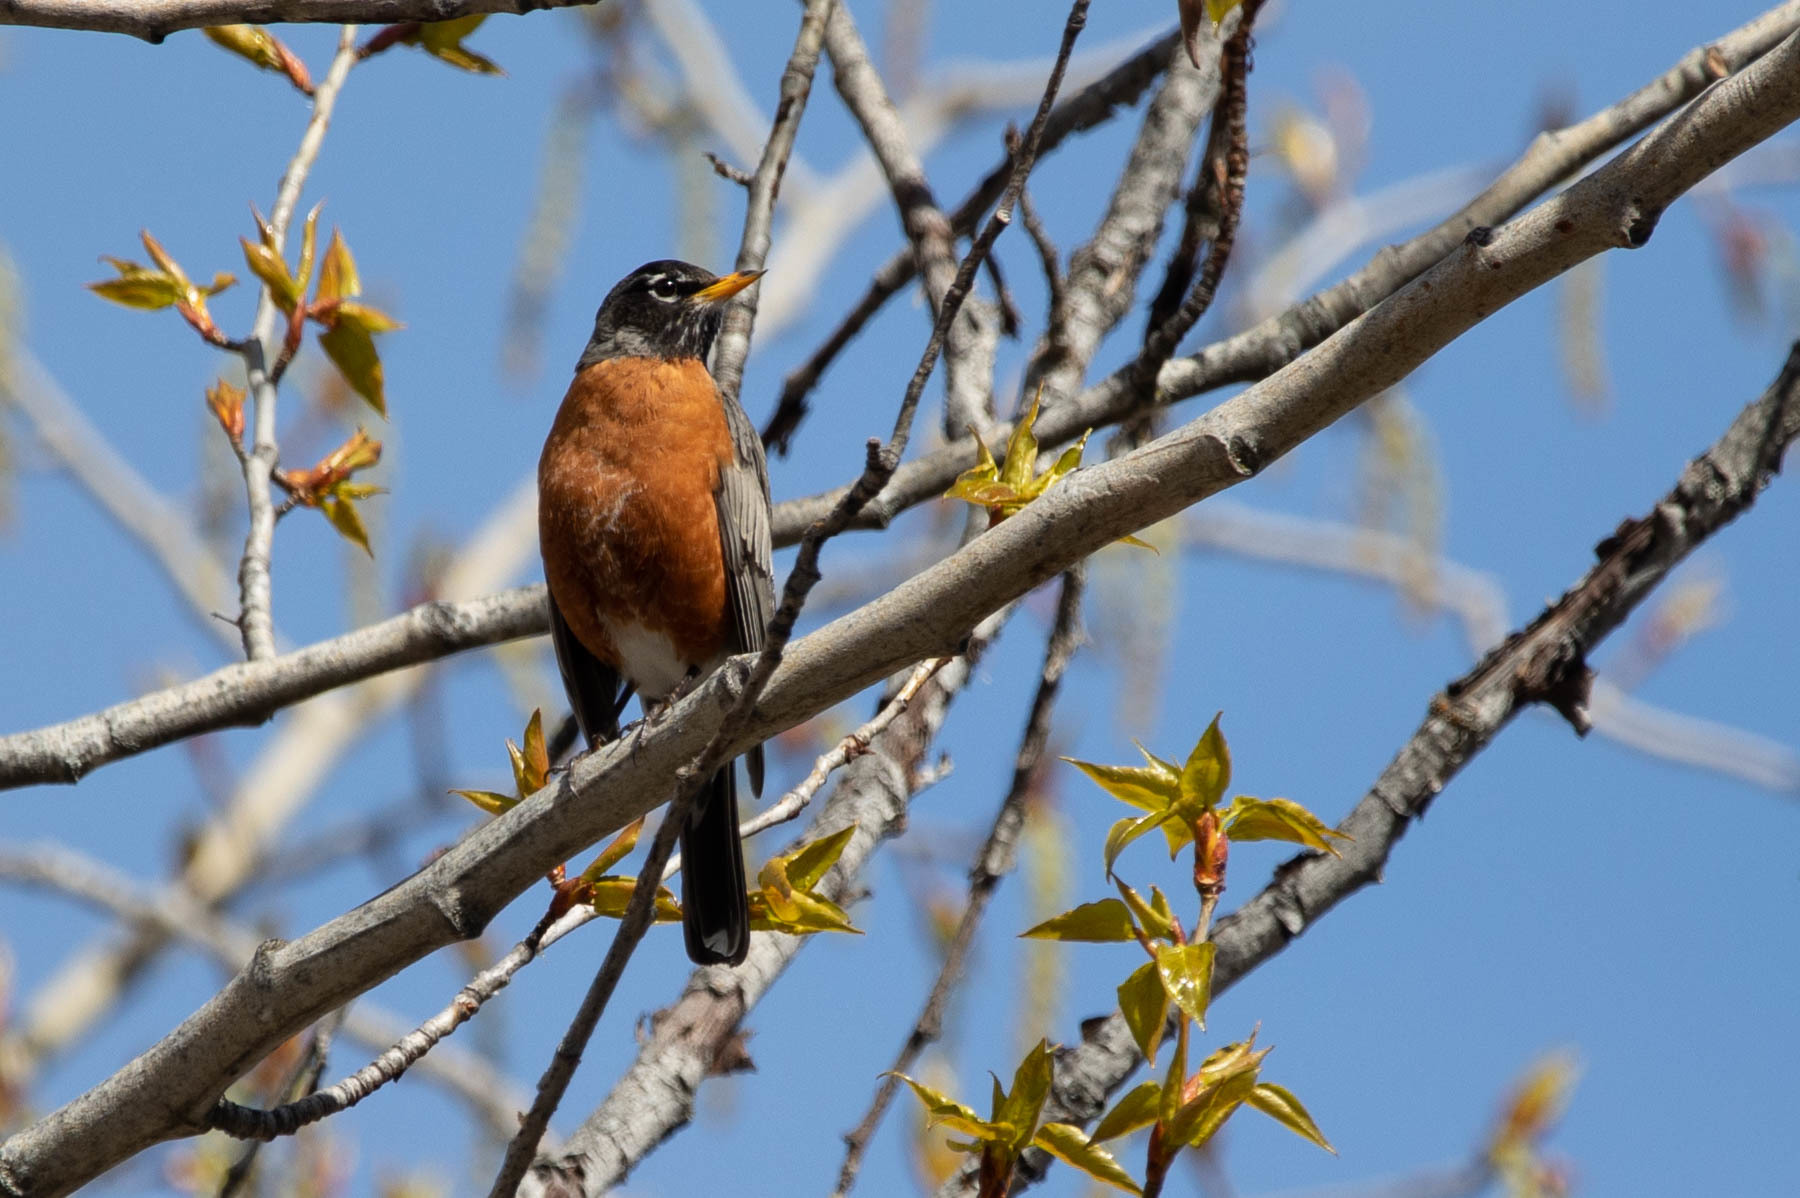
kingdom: Animalia
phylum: Chordata
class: Aves
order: Passeriformes
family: Turdidae
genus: Turdus
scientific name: Turdus migratorius
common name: American robin
